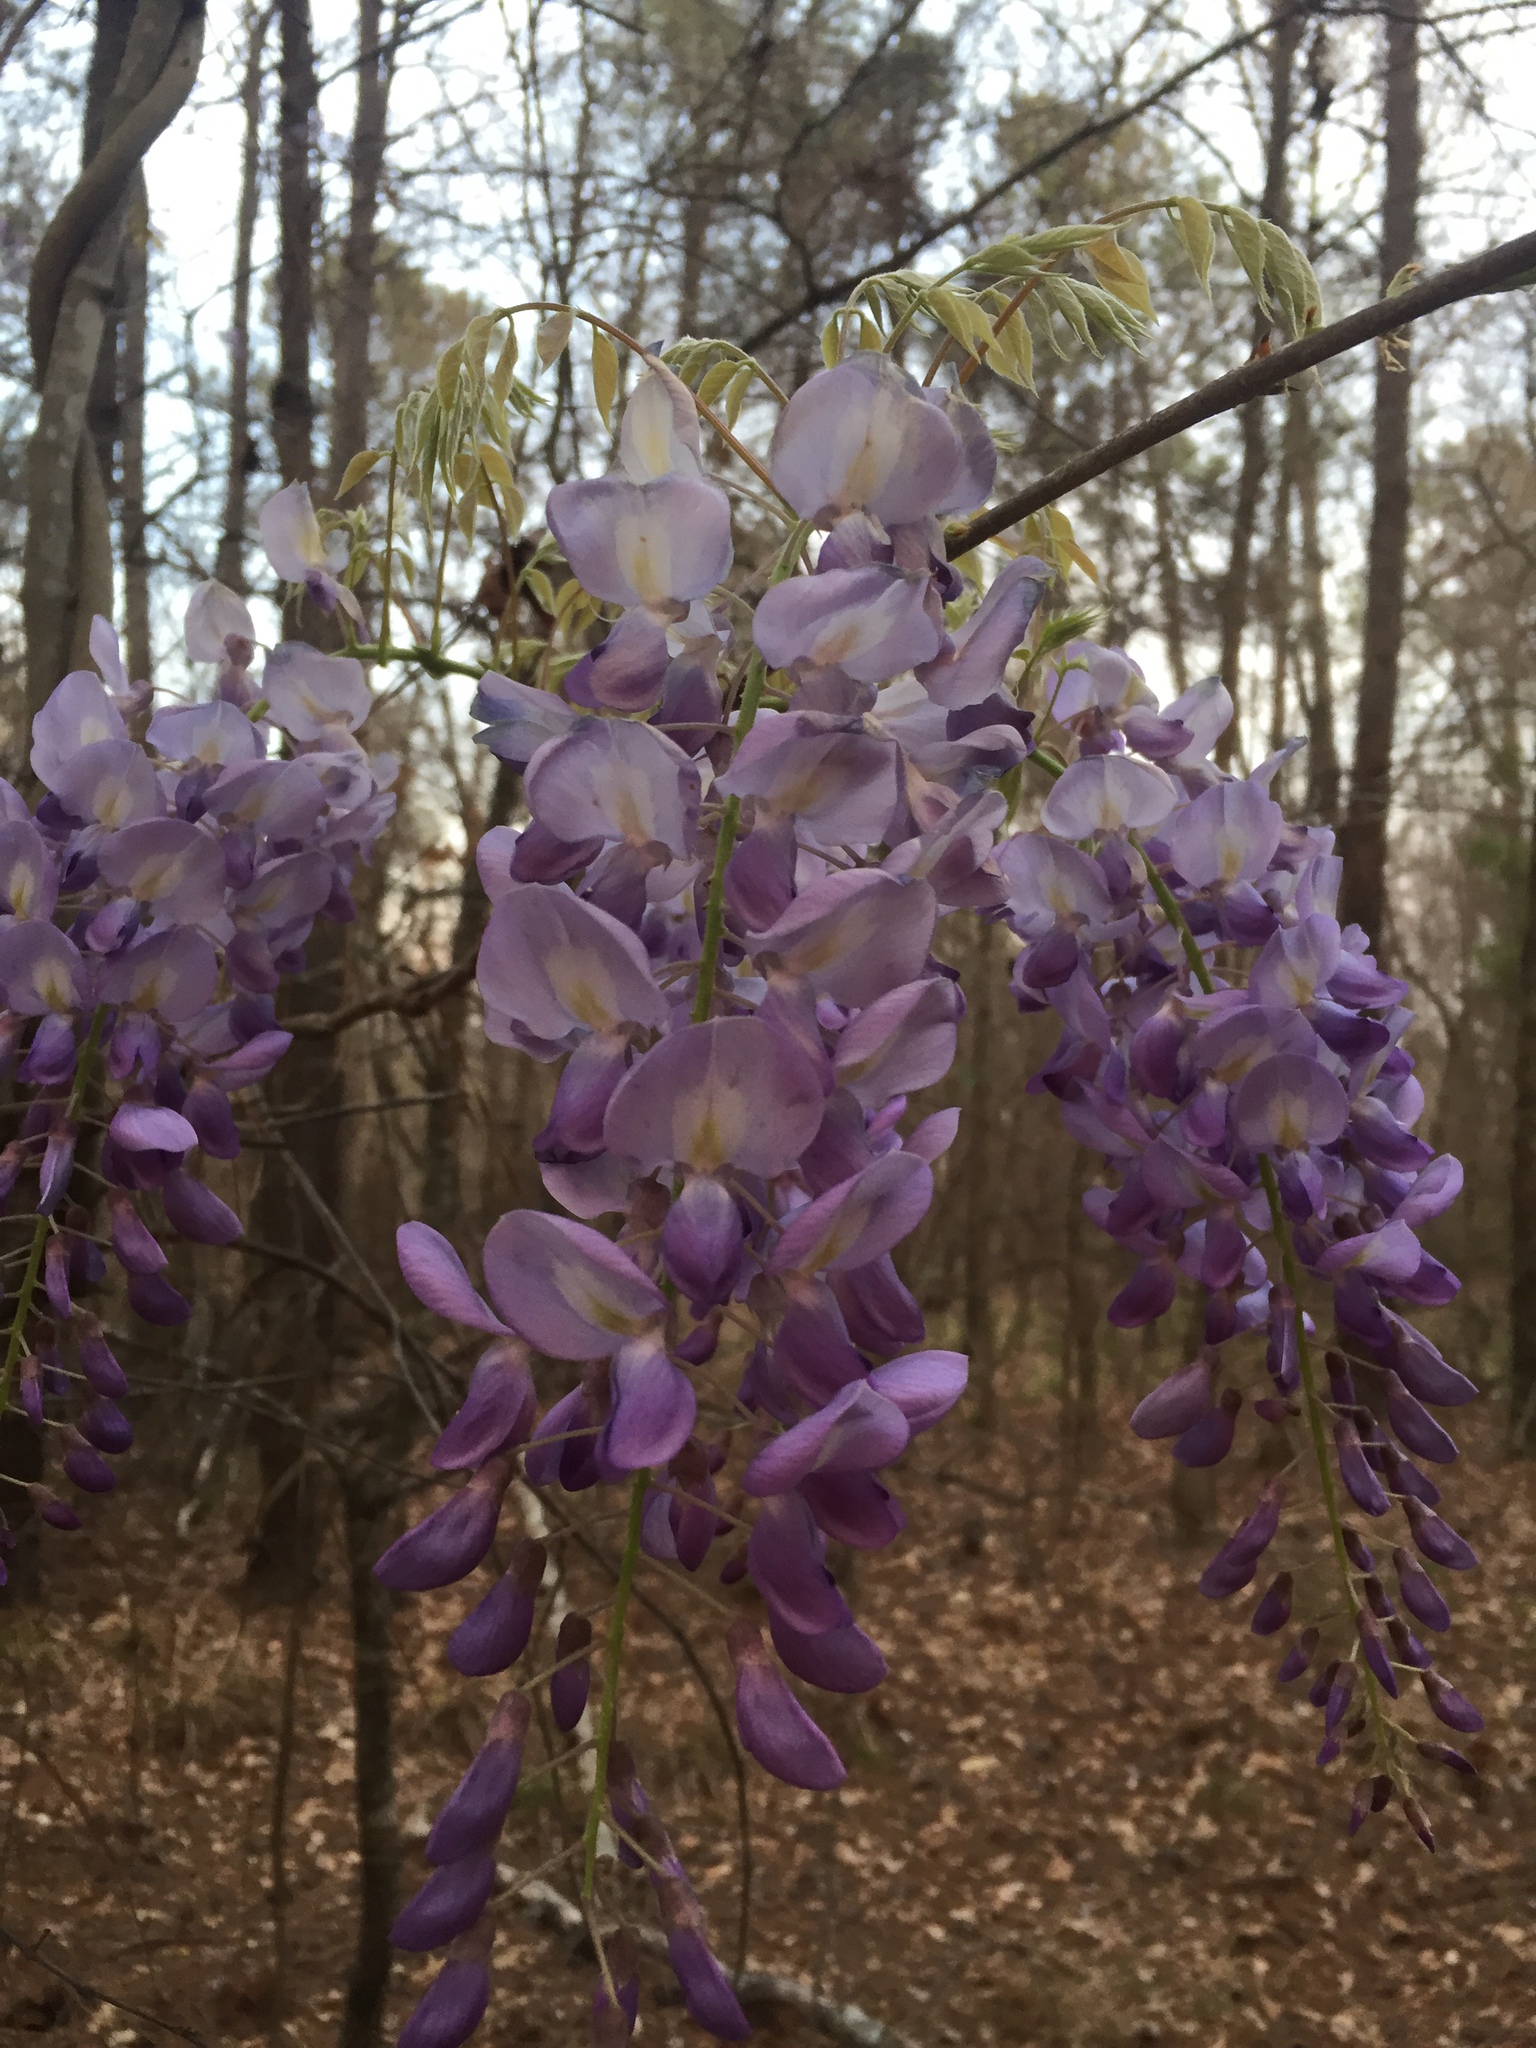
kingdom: Plantae
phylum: Tracheophyta
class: Magnoliopsida
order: Fabales
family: Fabaceae
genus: Wisteria
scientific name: Wisteria sinensis
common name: Chinese wisteria
